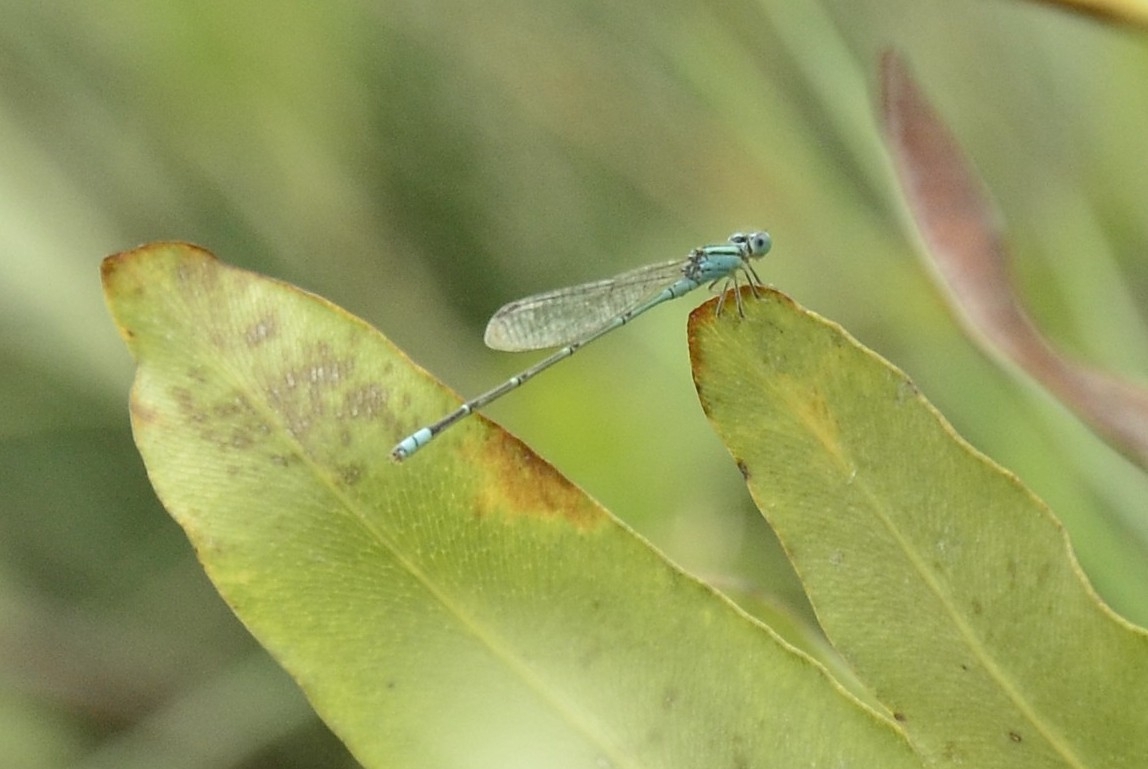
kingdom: Animalia
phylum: Arthropoda
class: Insecta
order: Odonata
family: Coenagrionidae
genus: Pseudagrion
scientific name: Pseudagrion microcephalum
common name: Blue riverdamsel
